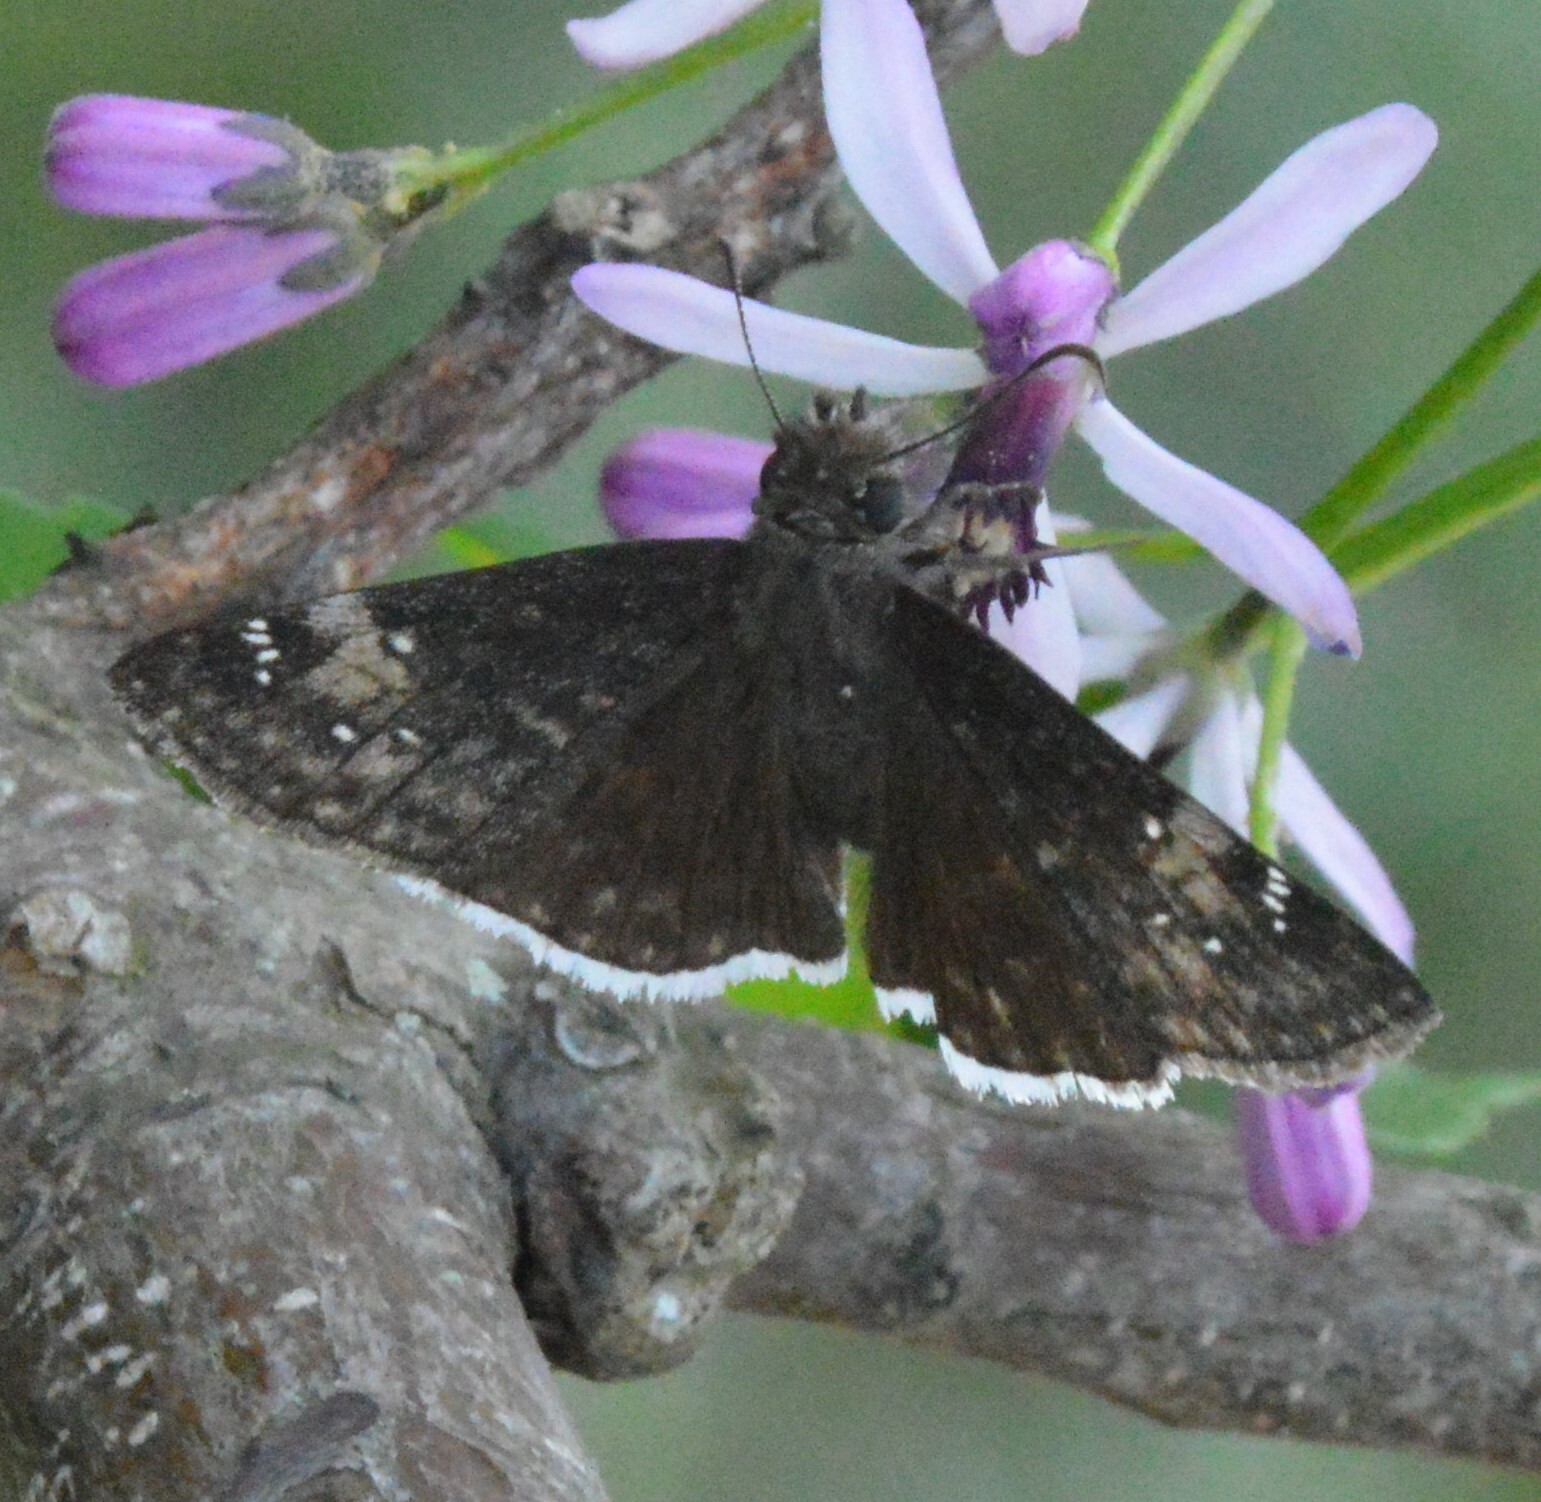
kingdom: Plantae
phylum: Tracheophyta
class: Magnoliopsida
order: Sapindales
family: Meliaceae
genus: Melia
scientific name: Melia azedarach
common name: Chinaberrytree
